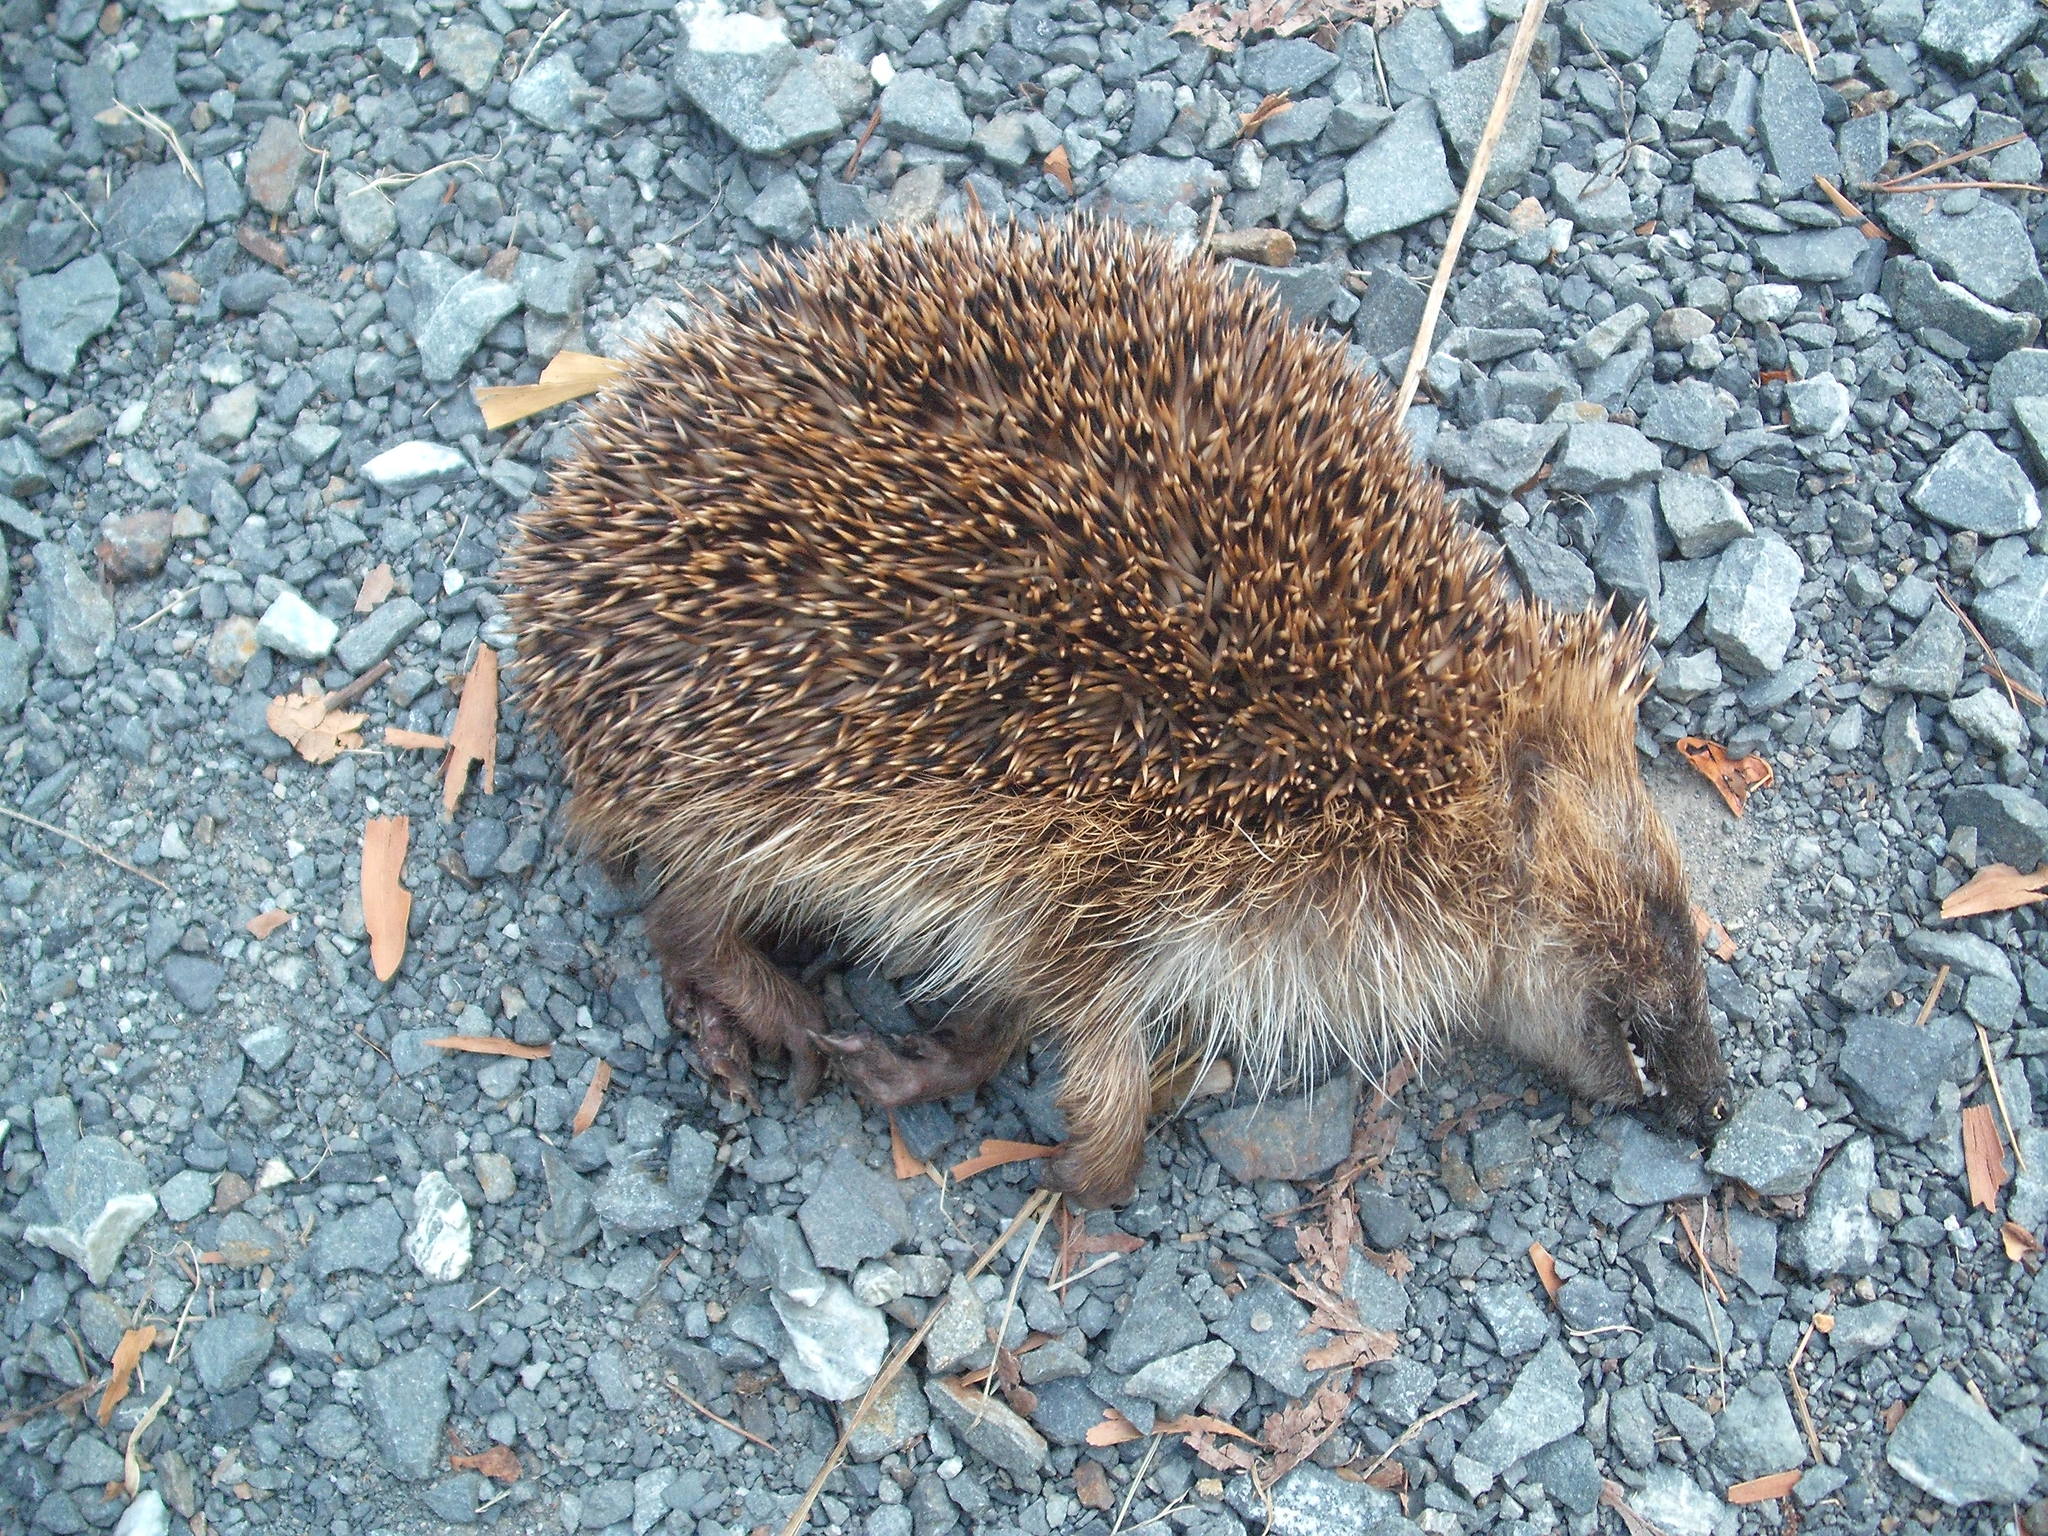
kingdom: Animalia
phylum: Chordata
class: Mammalia
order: Erinaceomorpha
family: Erinaceidae
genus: Erinaceus
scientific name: Erinaceus europaeus
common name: West european hedgehog
